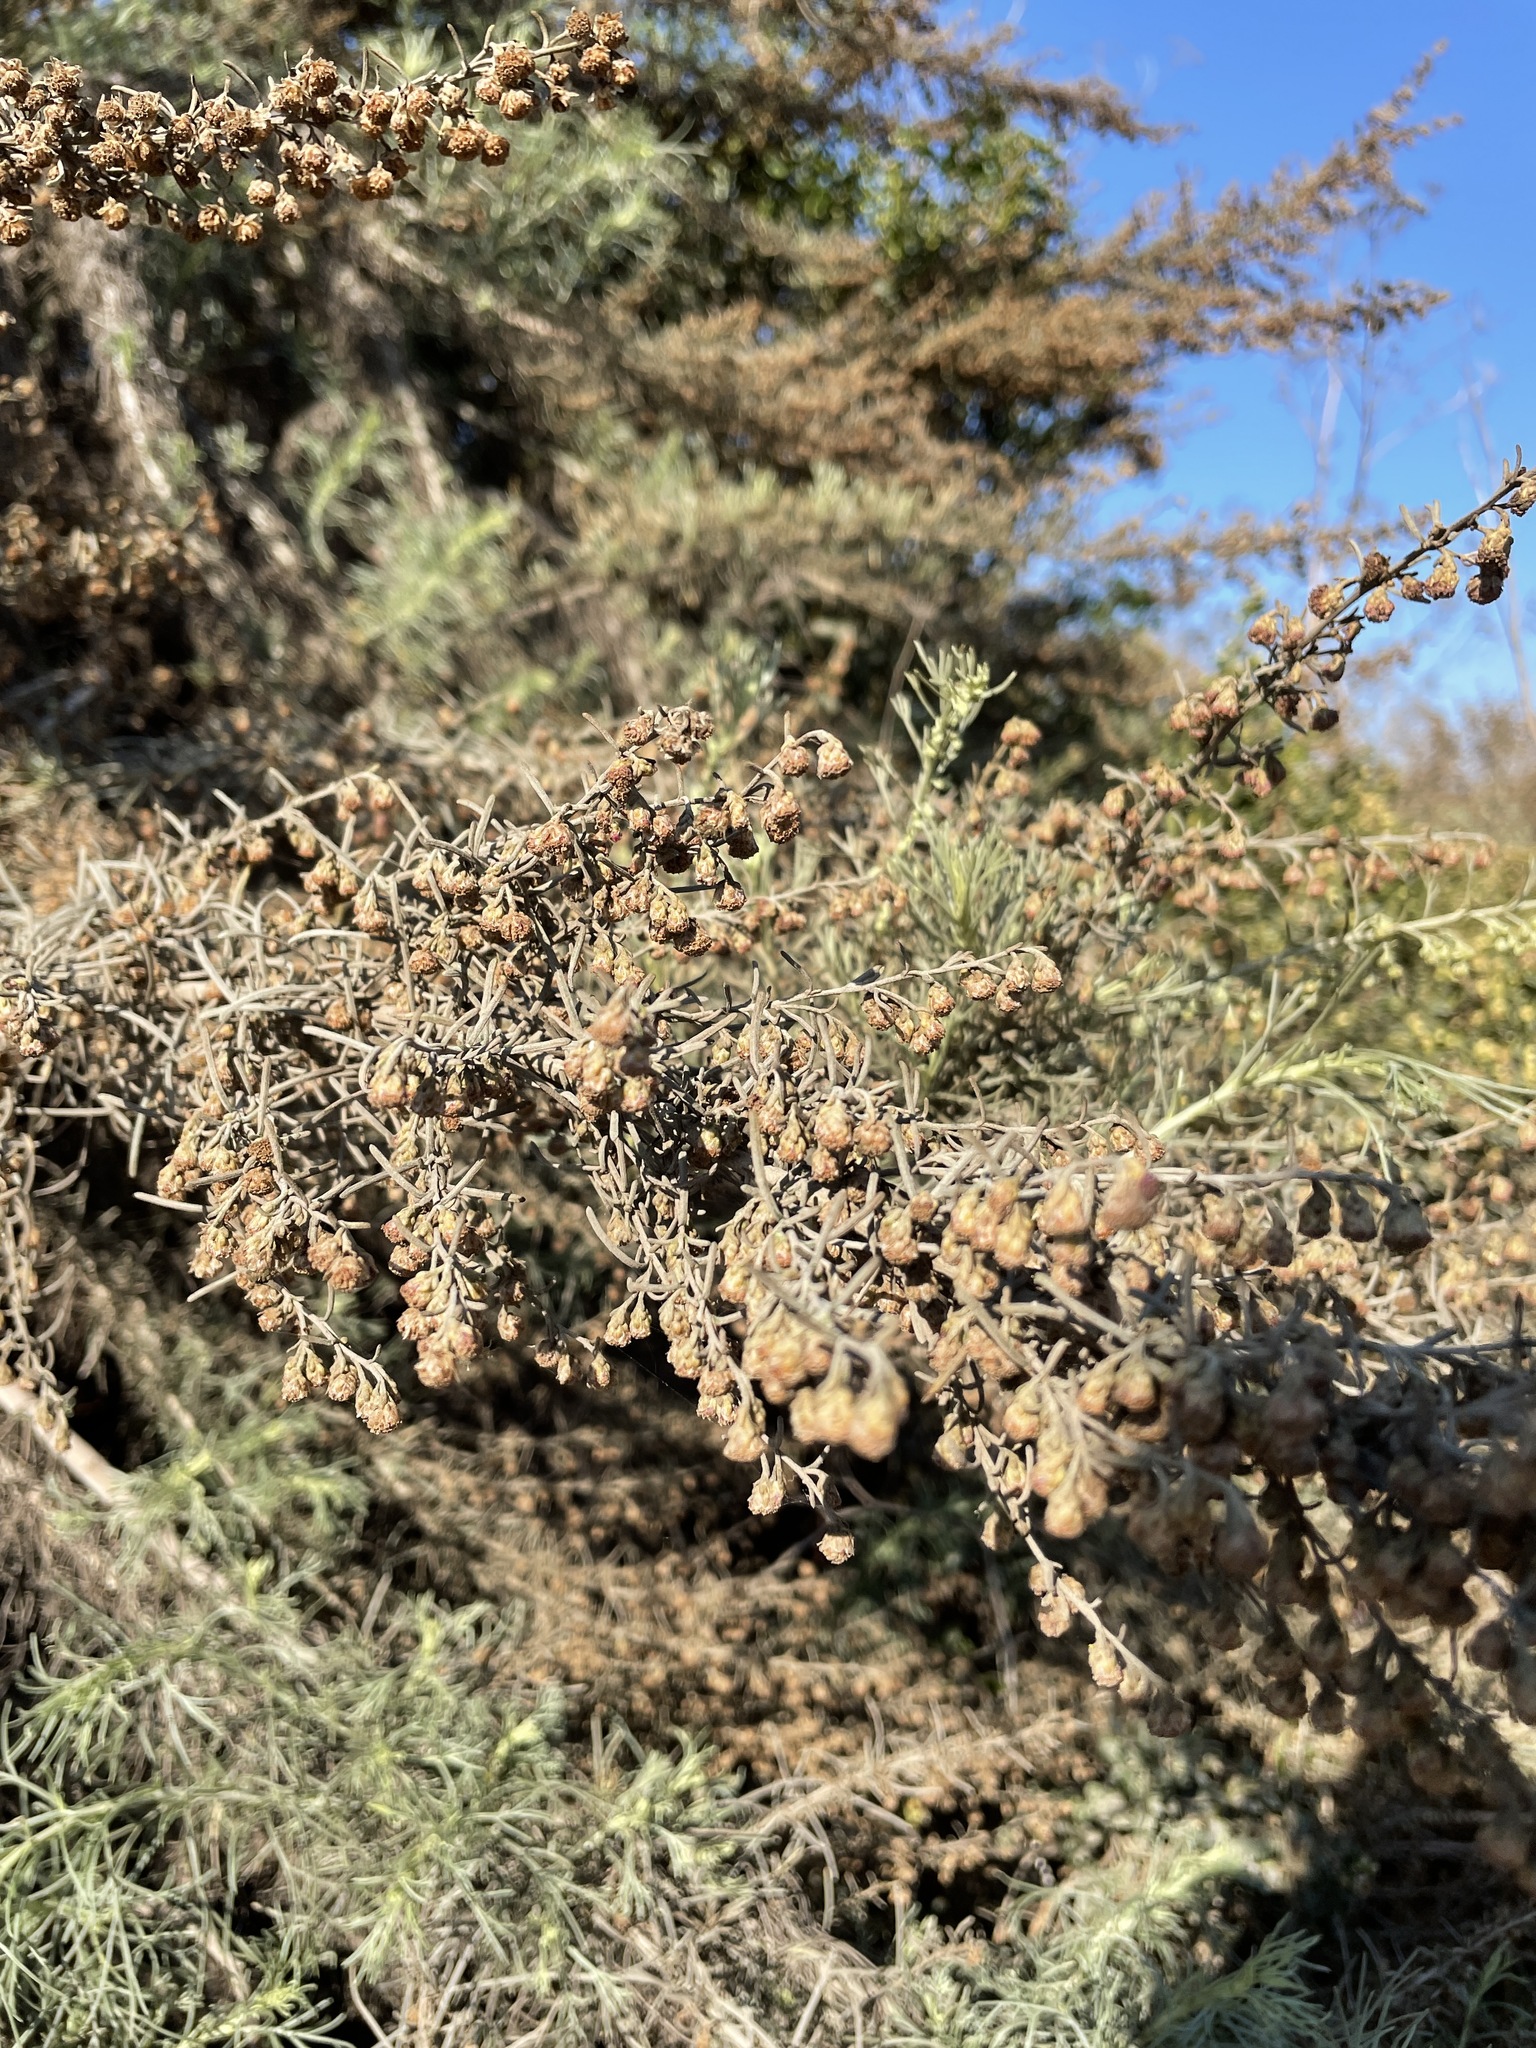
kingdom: Plantae
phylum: Tracheophyta
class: Magnoliopsida
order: Asterales
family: Asteraceae
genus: Artemisia
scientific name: Artemisia californica
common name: California sagebrush
